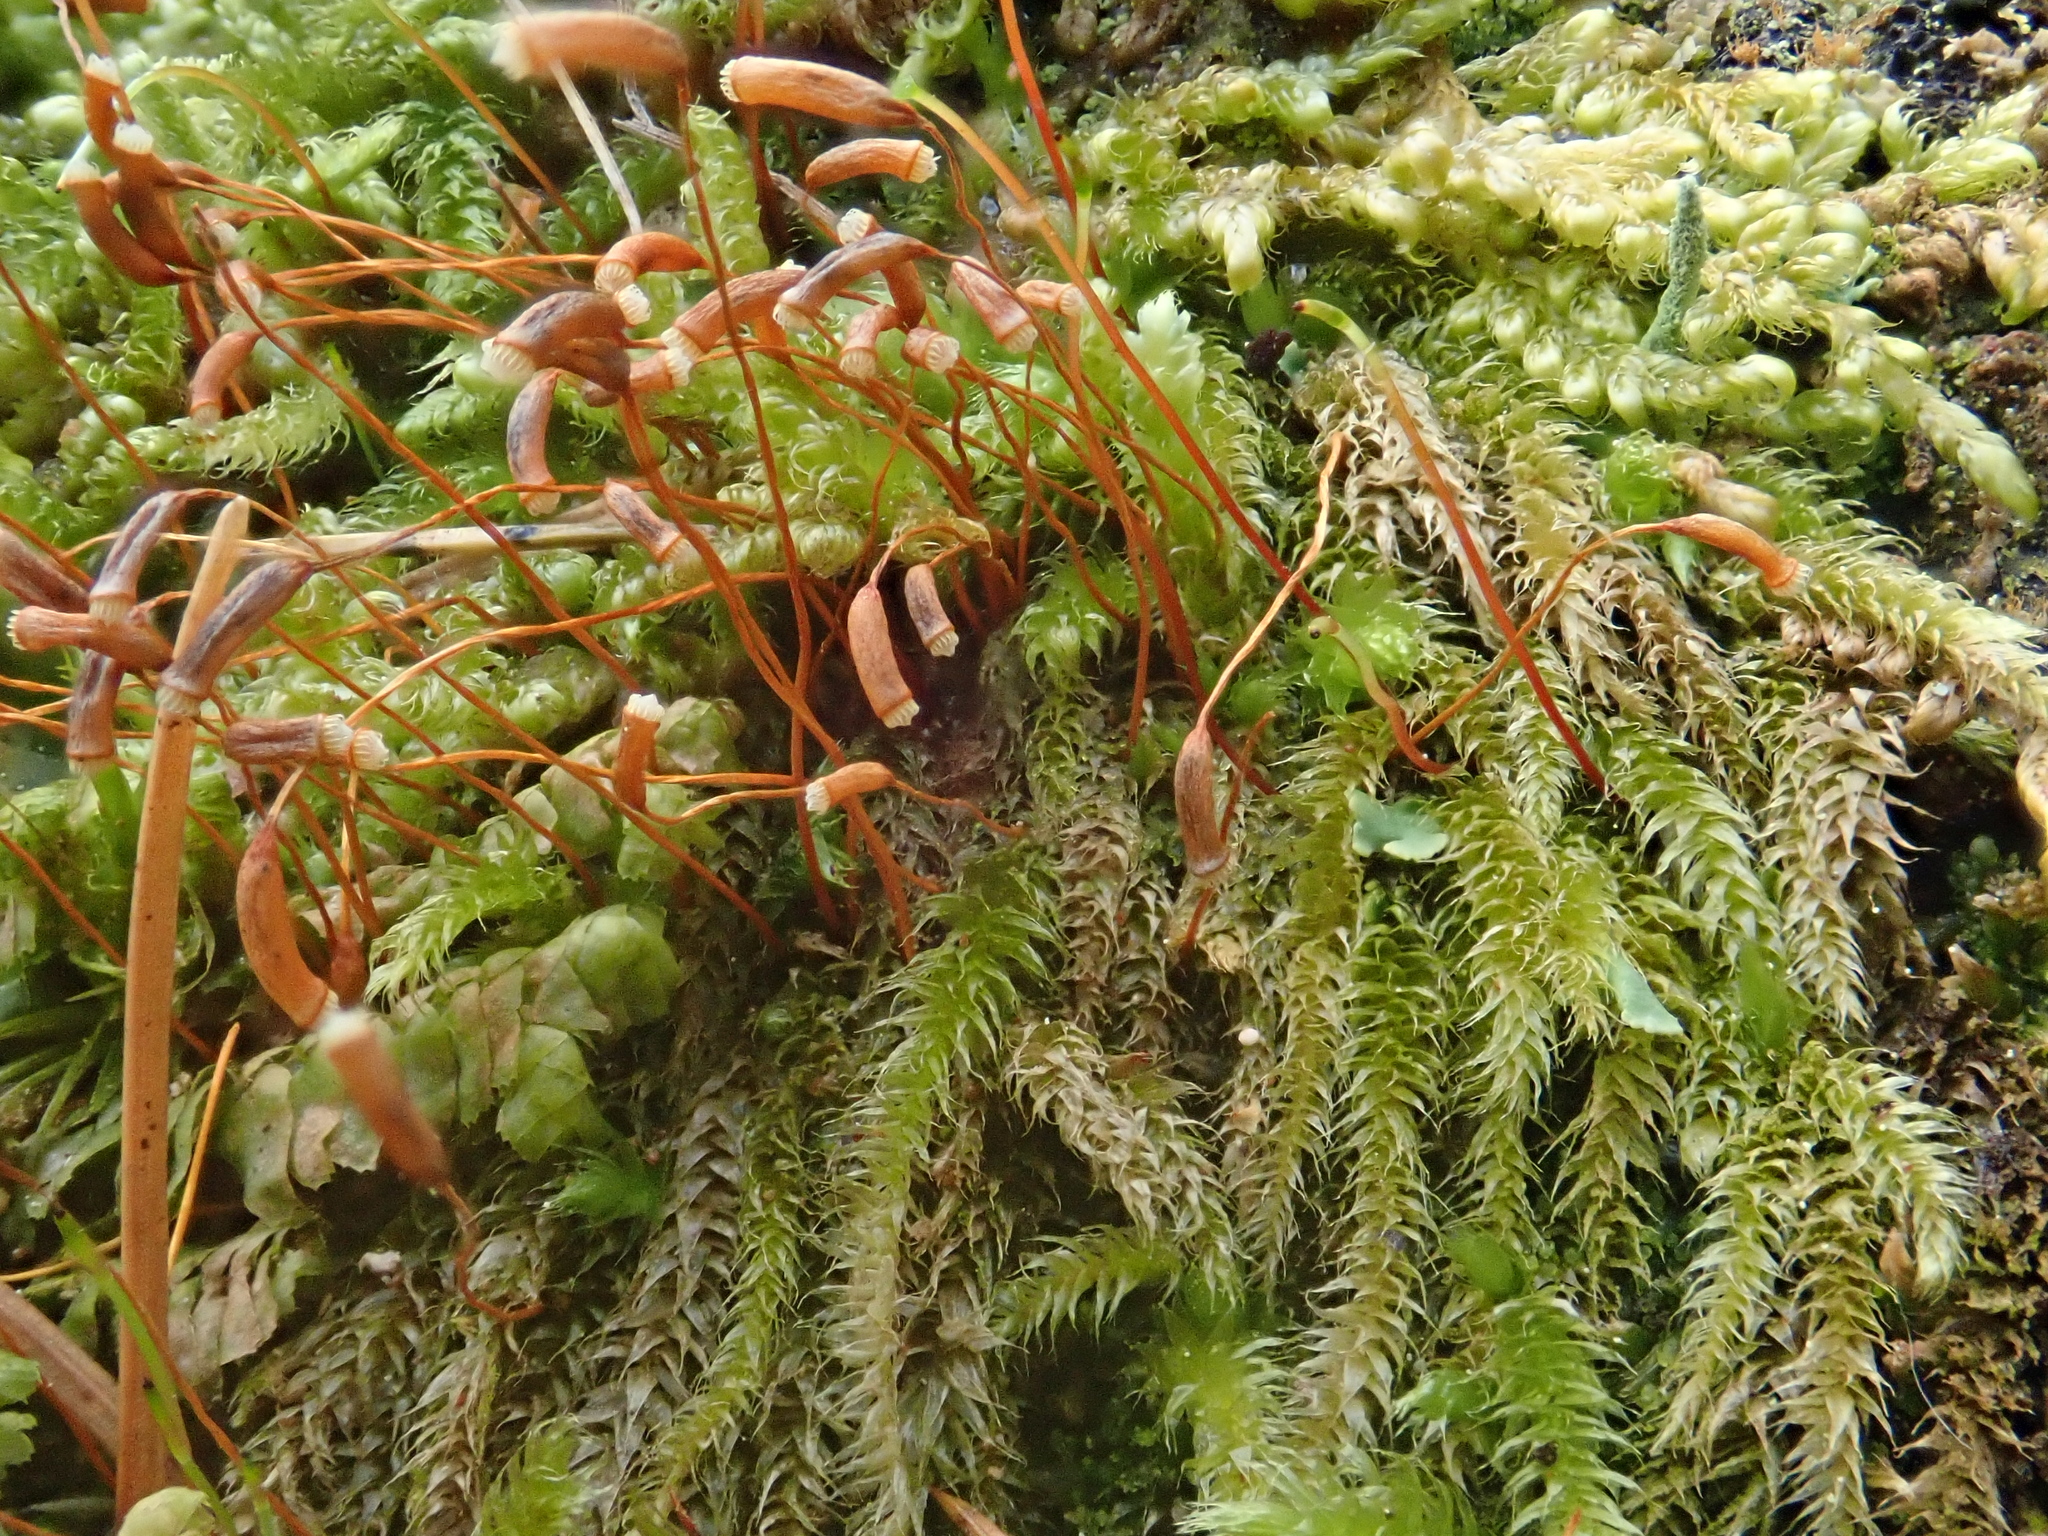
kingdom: Plantae
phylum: Bryophyta
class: Bryopsida
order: Hypnales
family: Plagiotheciaceae
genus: Herzogiella
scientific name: Herzogiella seligeri
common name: Silesian feather-moss
